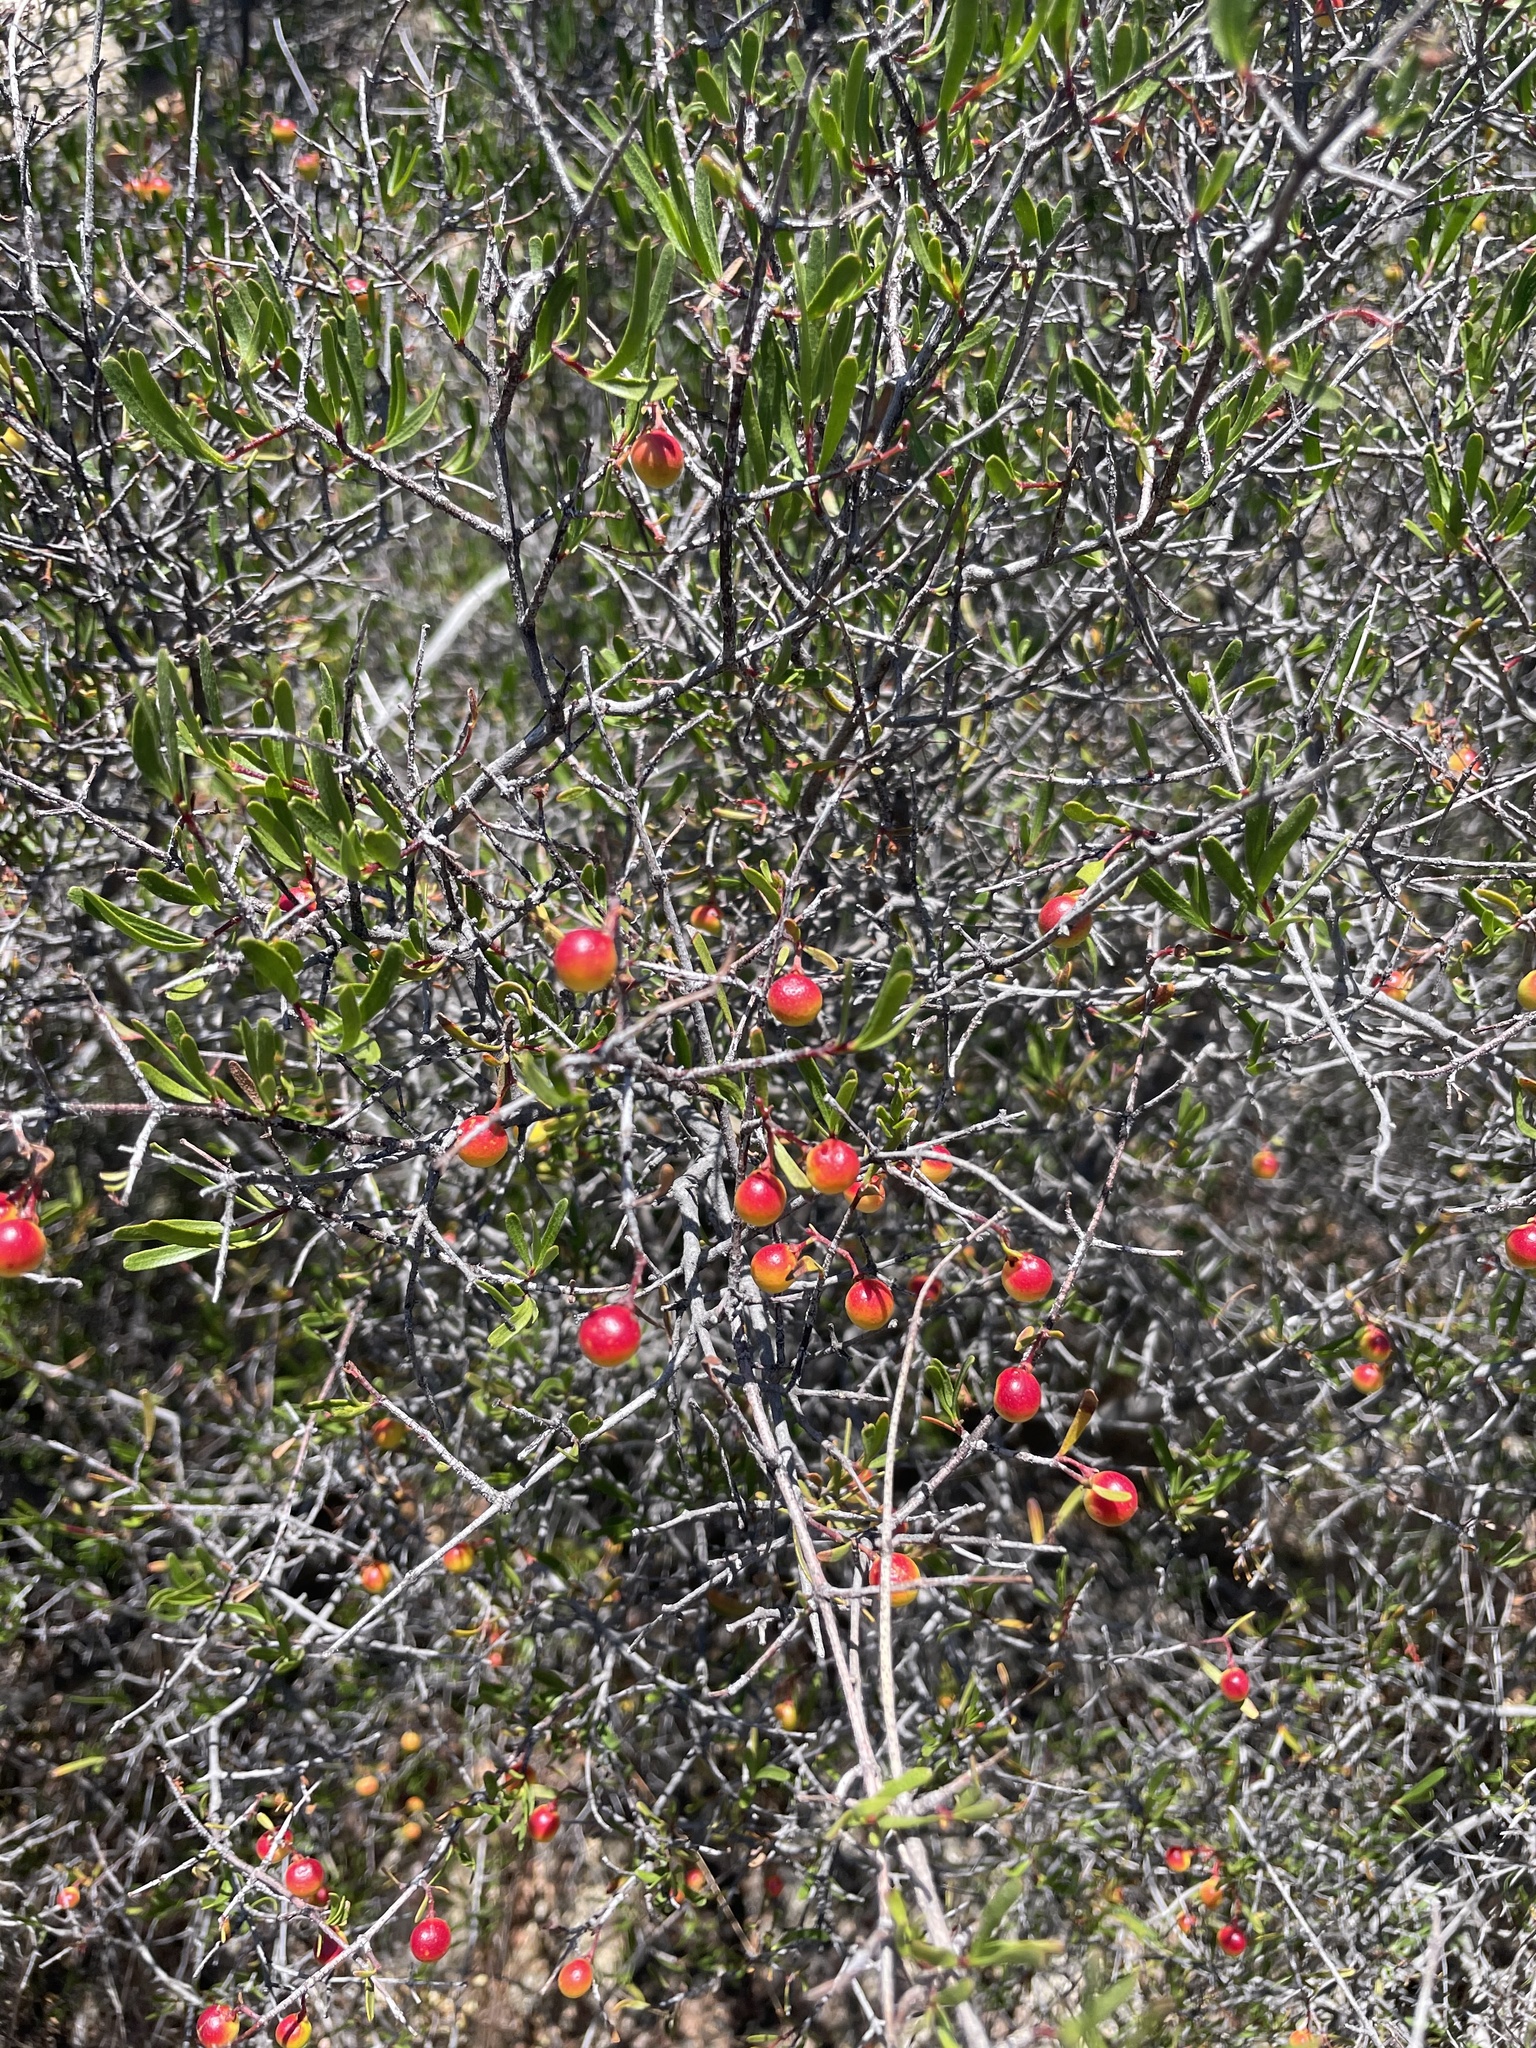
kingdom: Plantae
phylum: Tracheophyta
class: Magnoliopsida
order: Sapindales
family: Rutaceae
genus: Cneoridium
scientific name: Cneoridium dumosum
